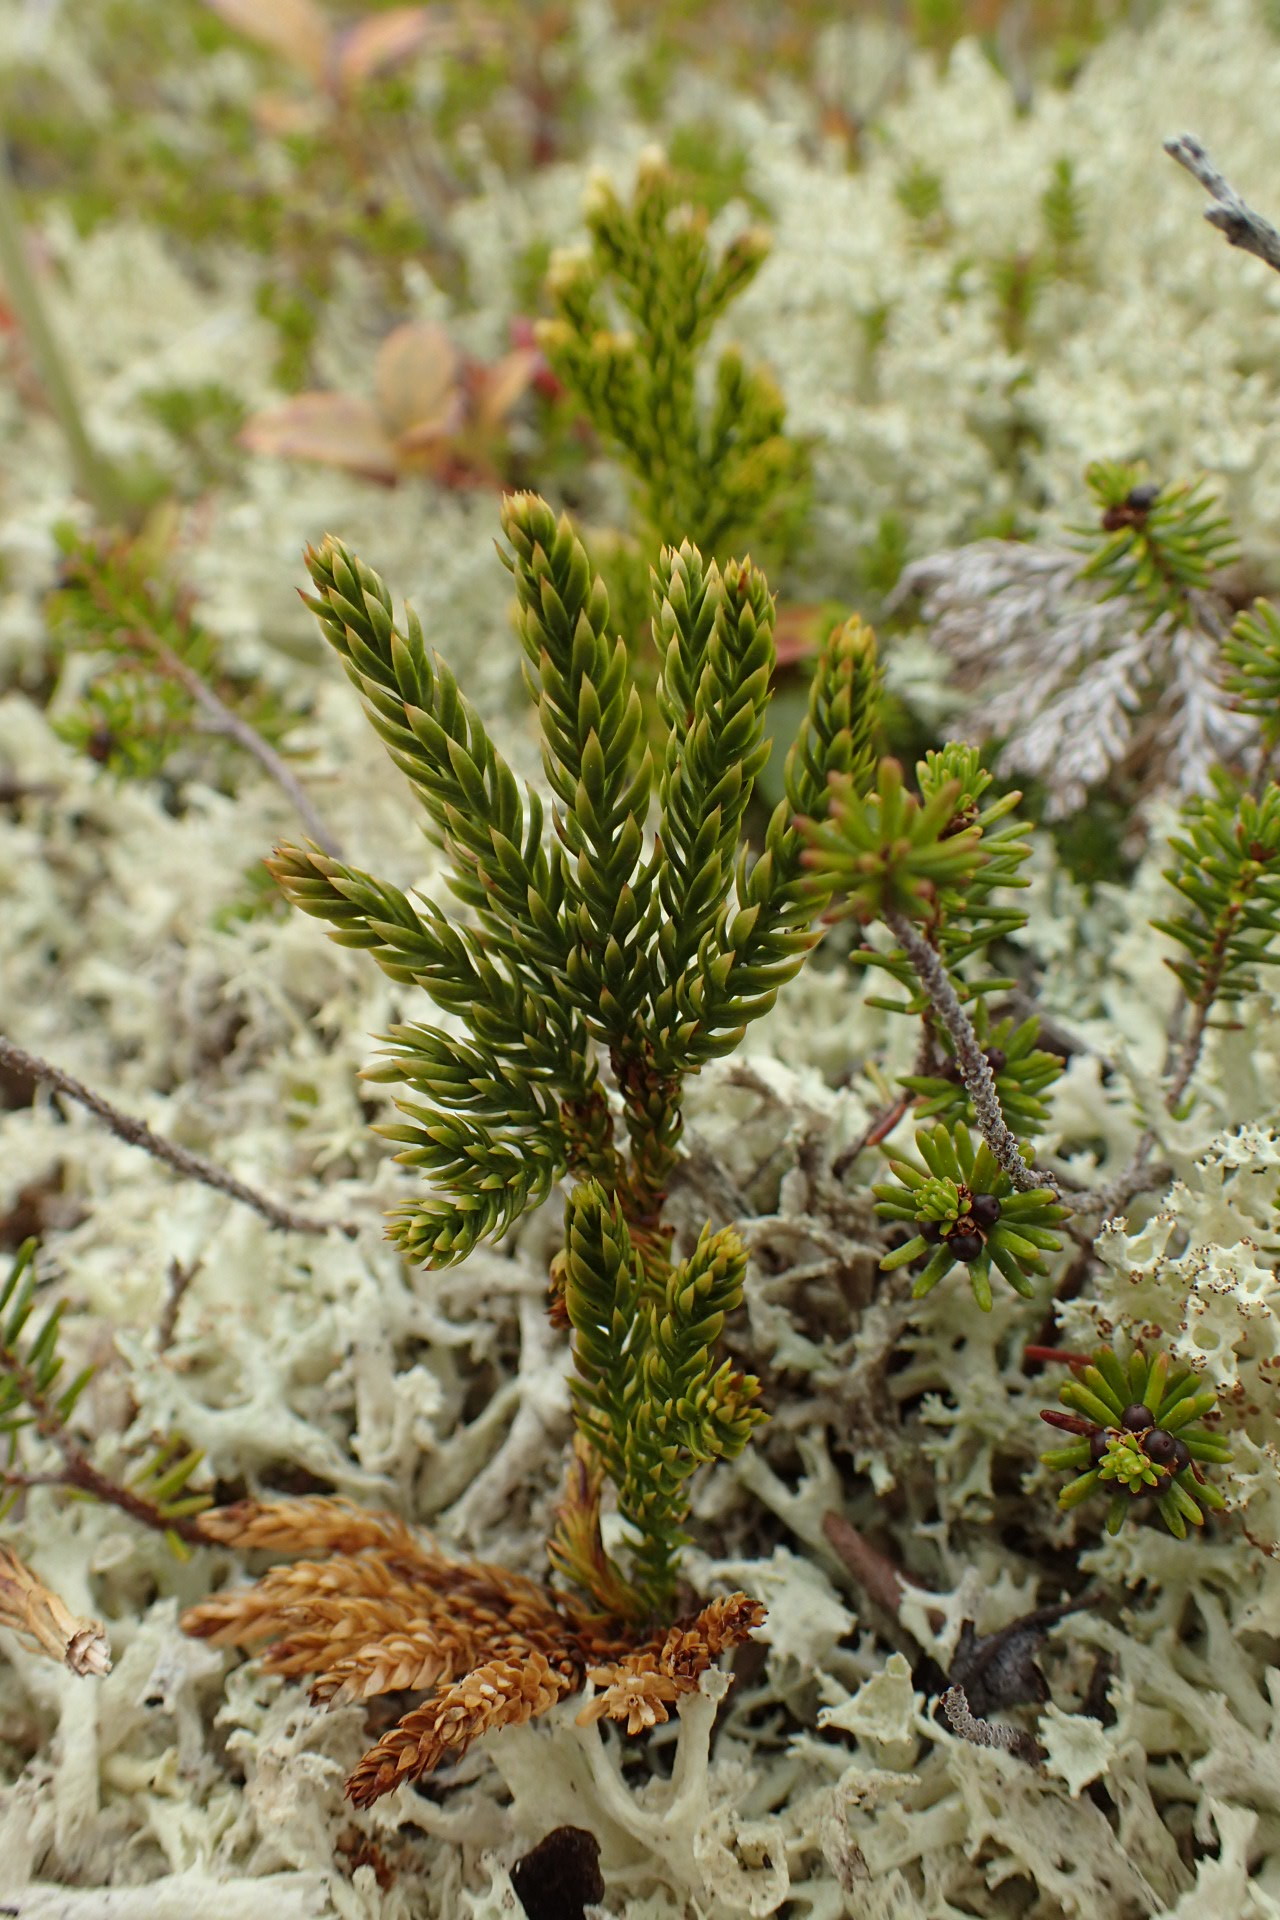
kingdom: Plantae
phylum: Tracheophyta
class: Lycopodiopsida
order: Lycopodiales
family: Lycopodiaceae
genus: Dendrolycopodium
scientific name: Dendrolycopodium hickeyi
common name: Hickey's clubmoss
